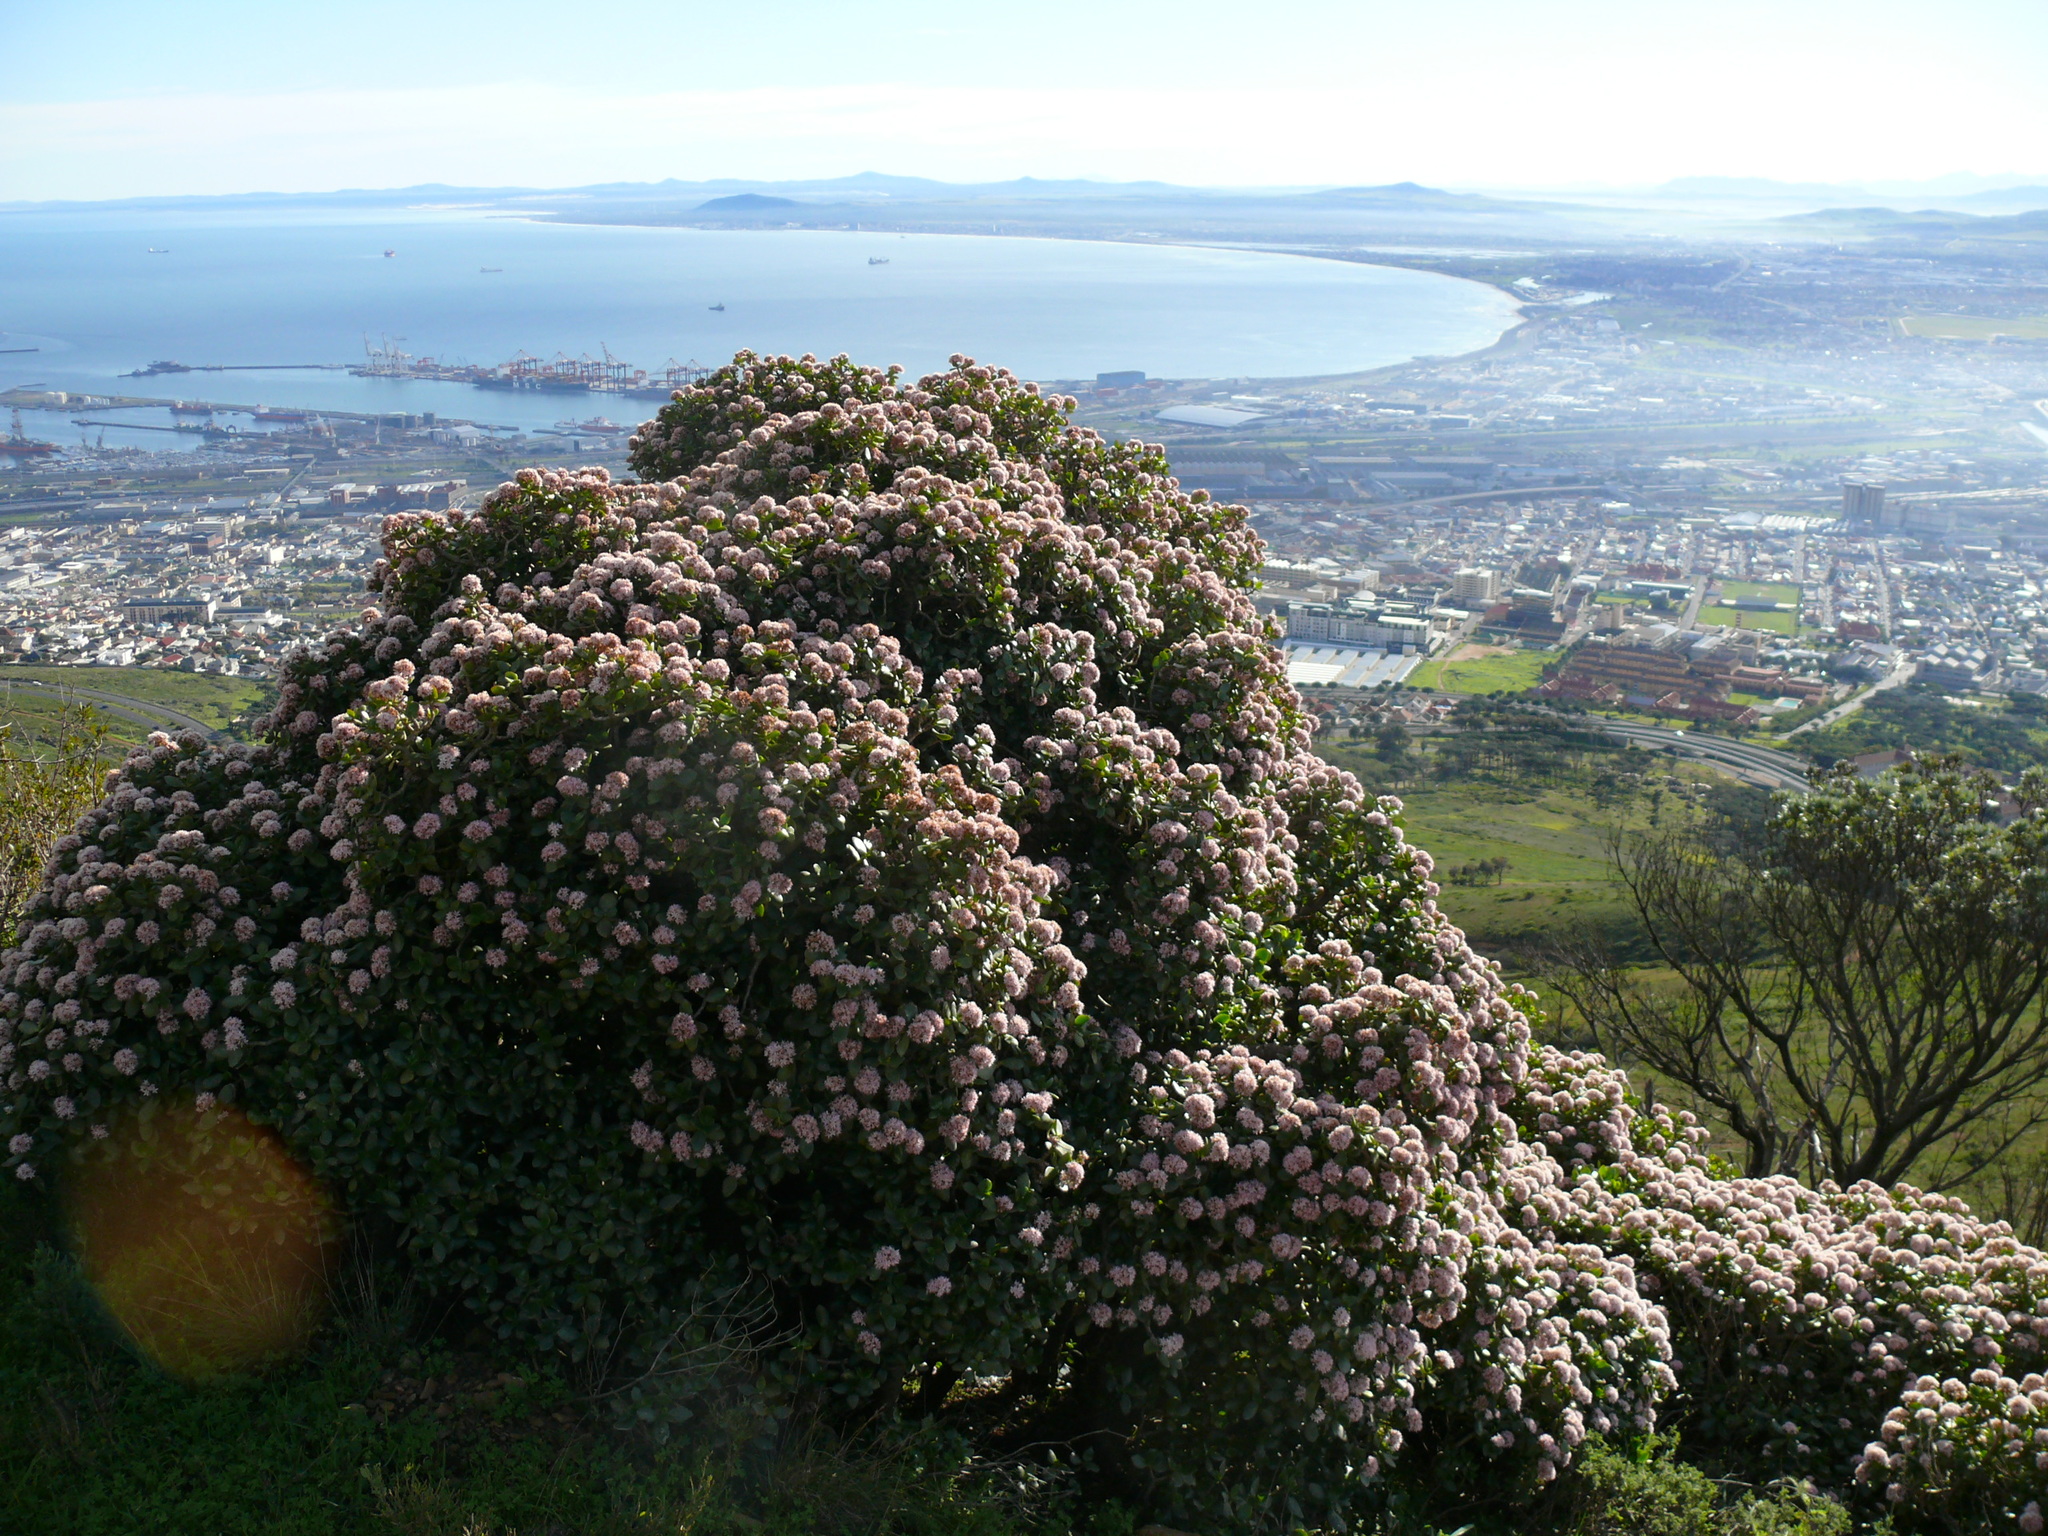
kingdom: Plantae
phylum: Tracheophyta
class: Magnoliopsida
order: Saxifragales
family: Crassulaceae
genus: Crassula
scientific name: Crassula ovata
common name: Jade plant
